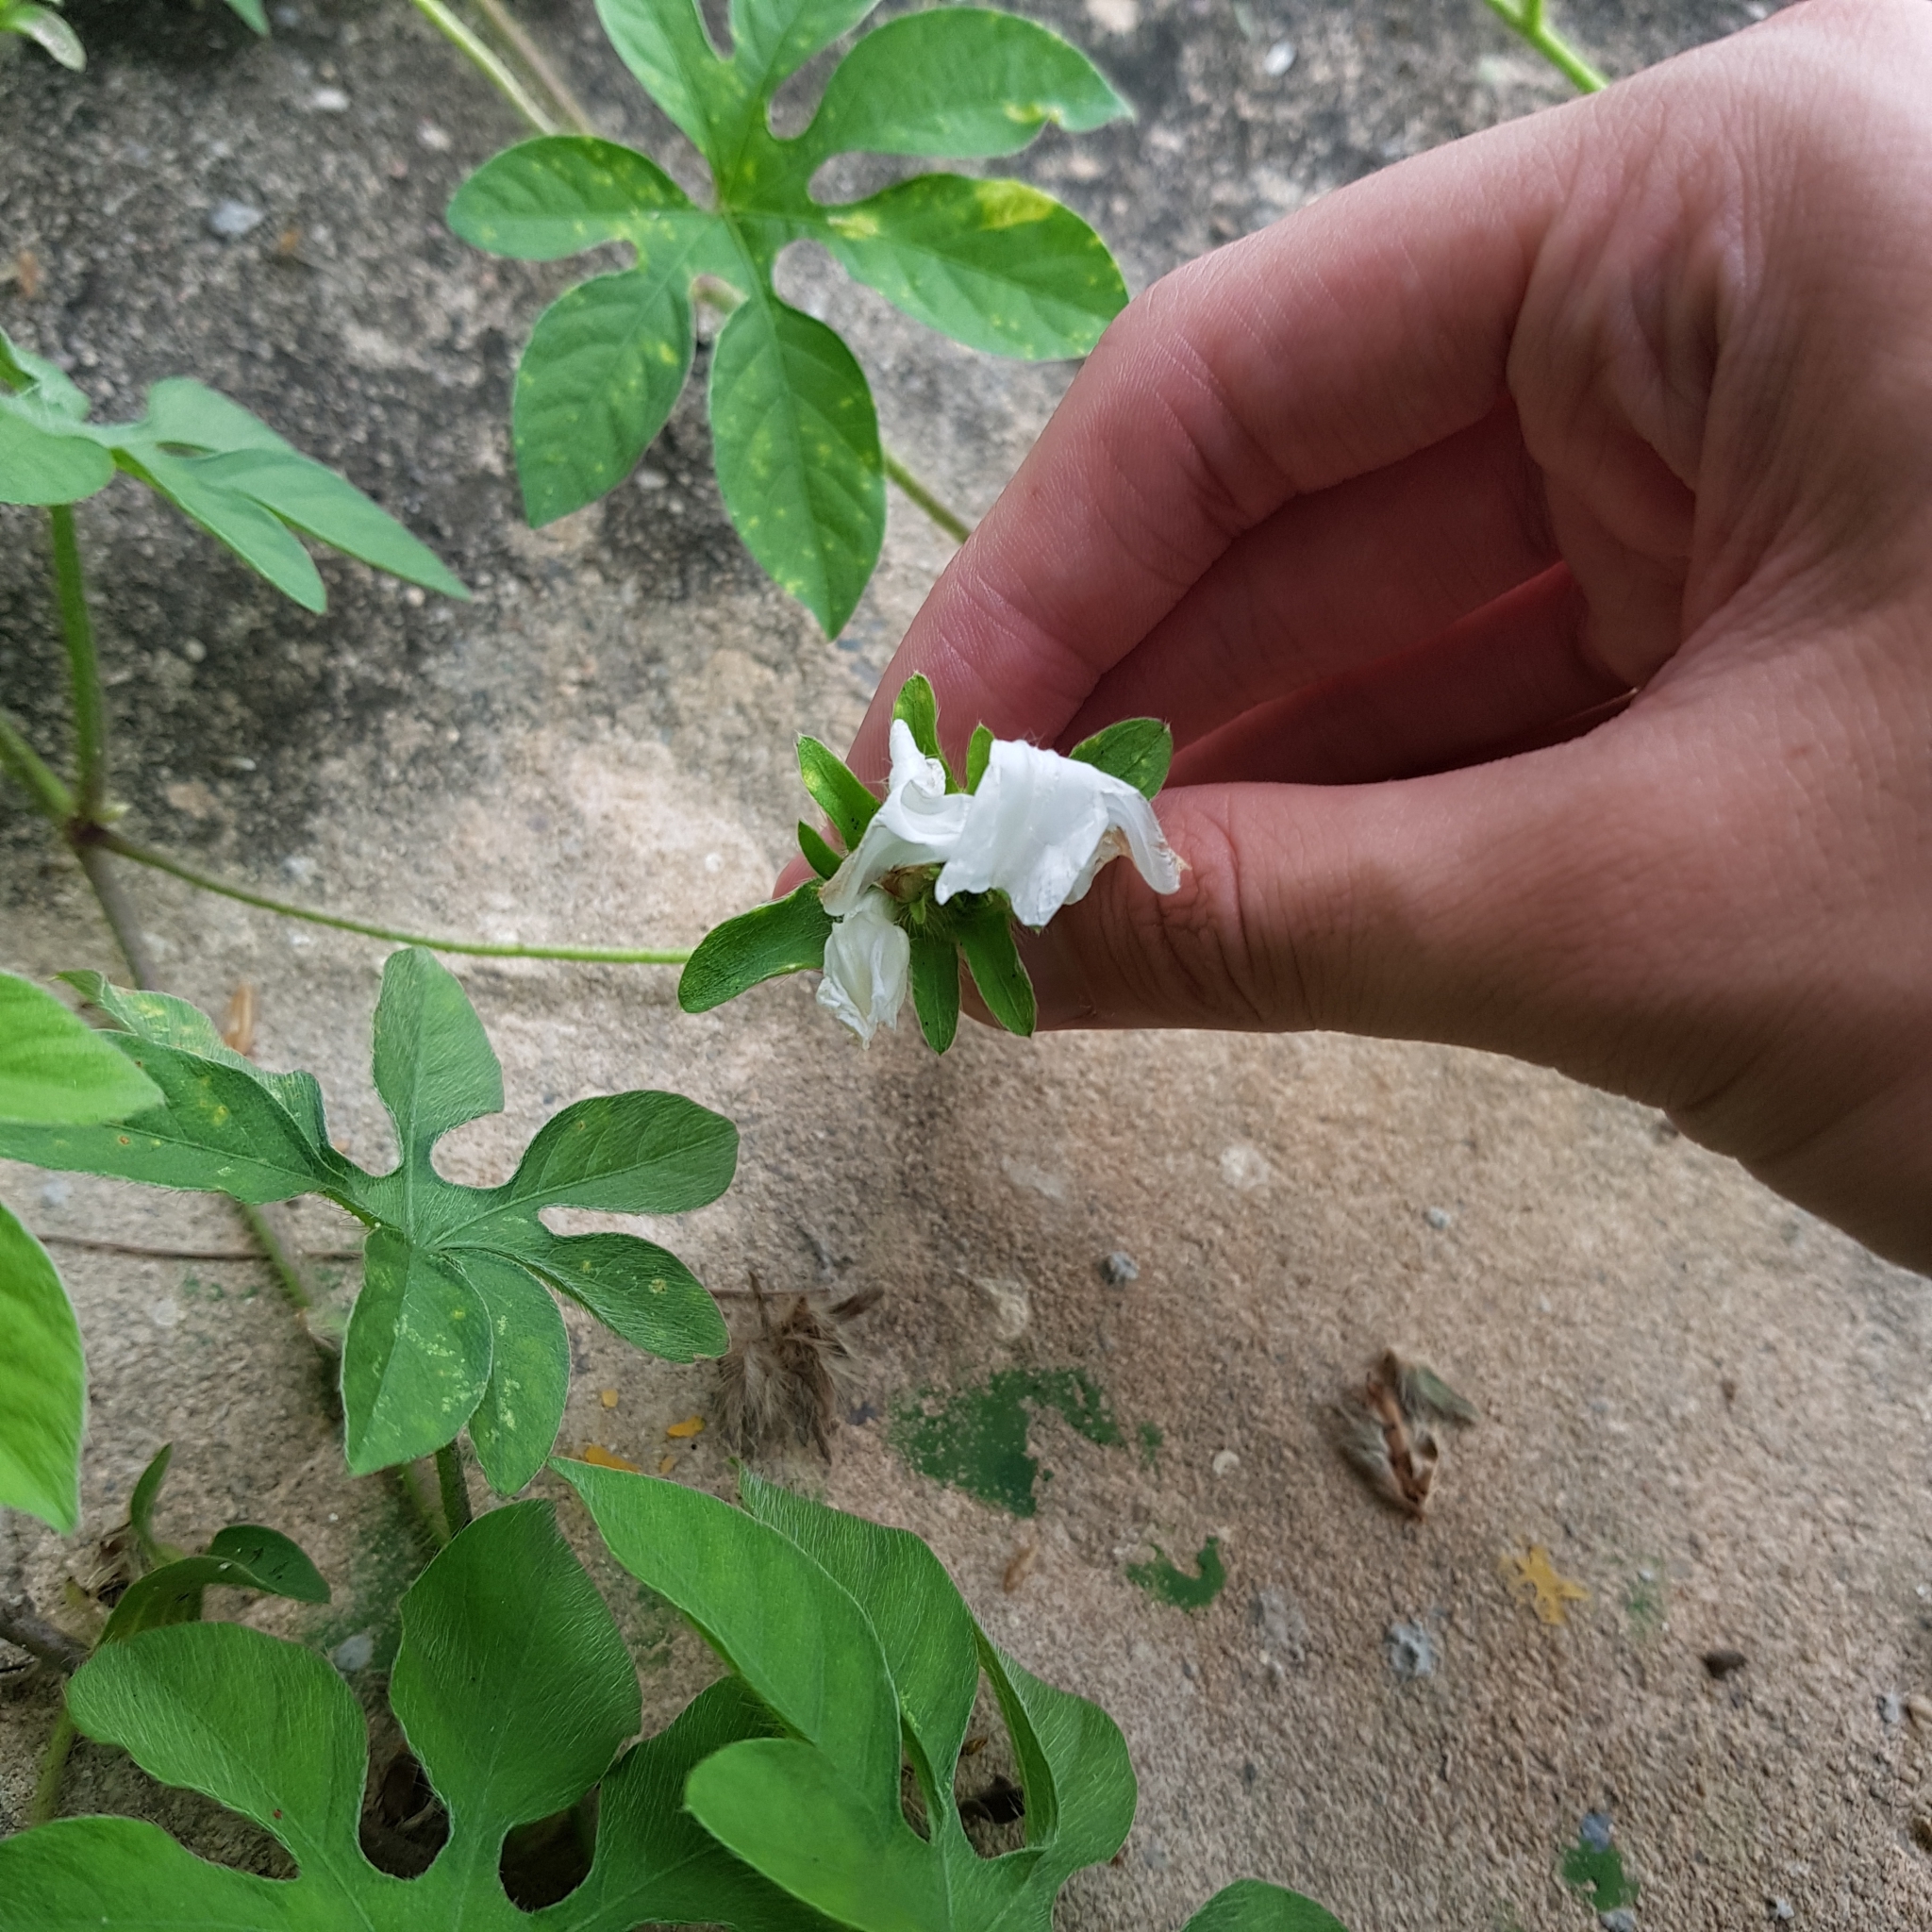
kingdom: Plantae
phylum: Tracheophyta
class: Magnoliopsida
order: Solanales
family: Convolvulaceae
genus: Ipomoea
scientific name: Ipomoea pes-tigridis
